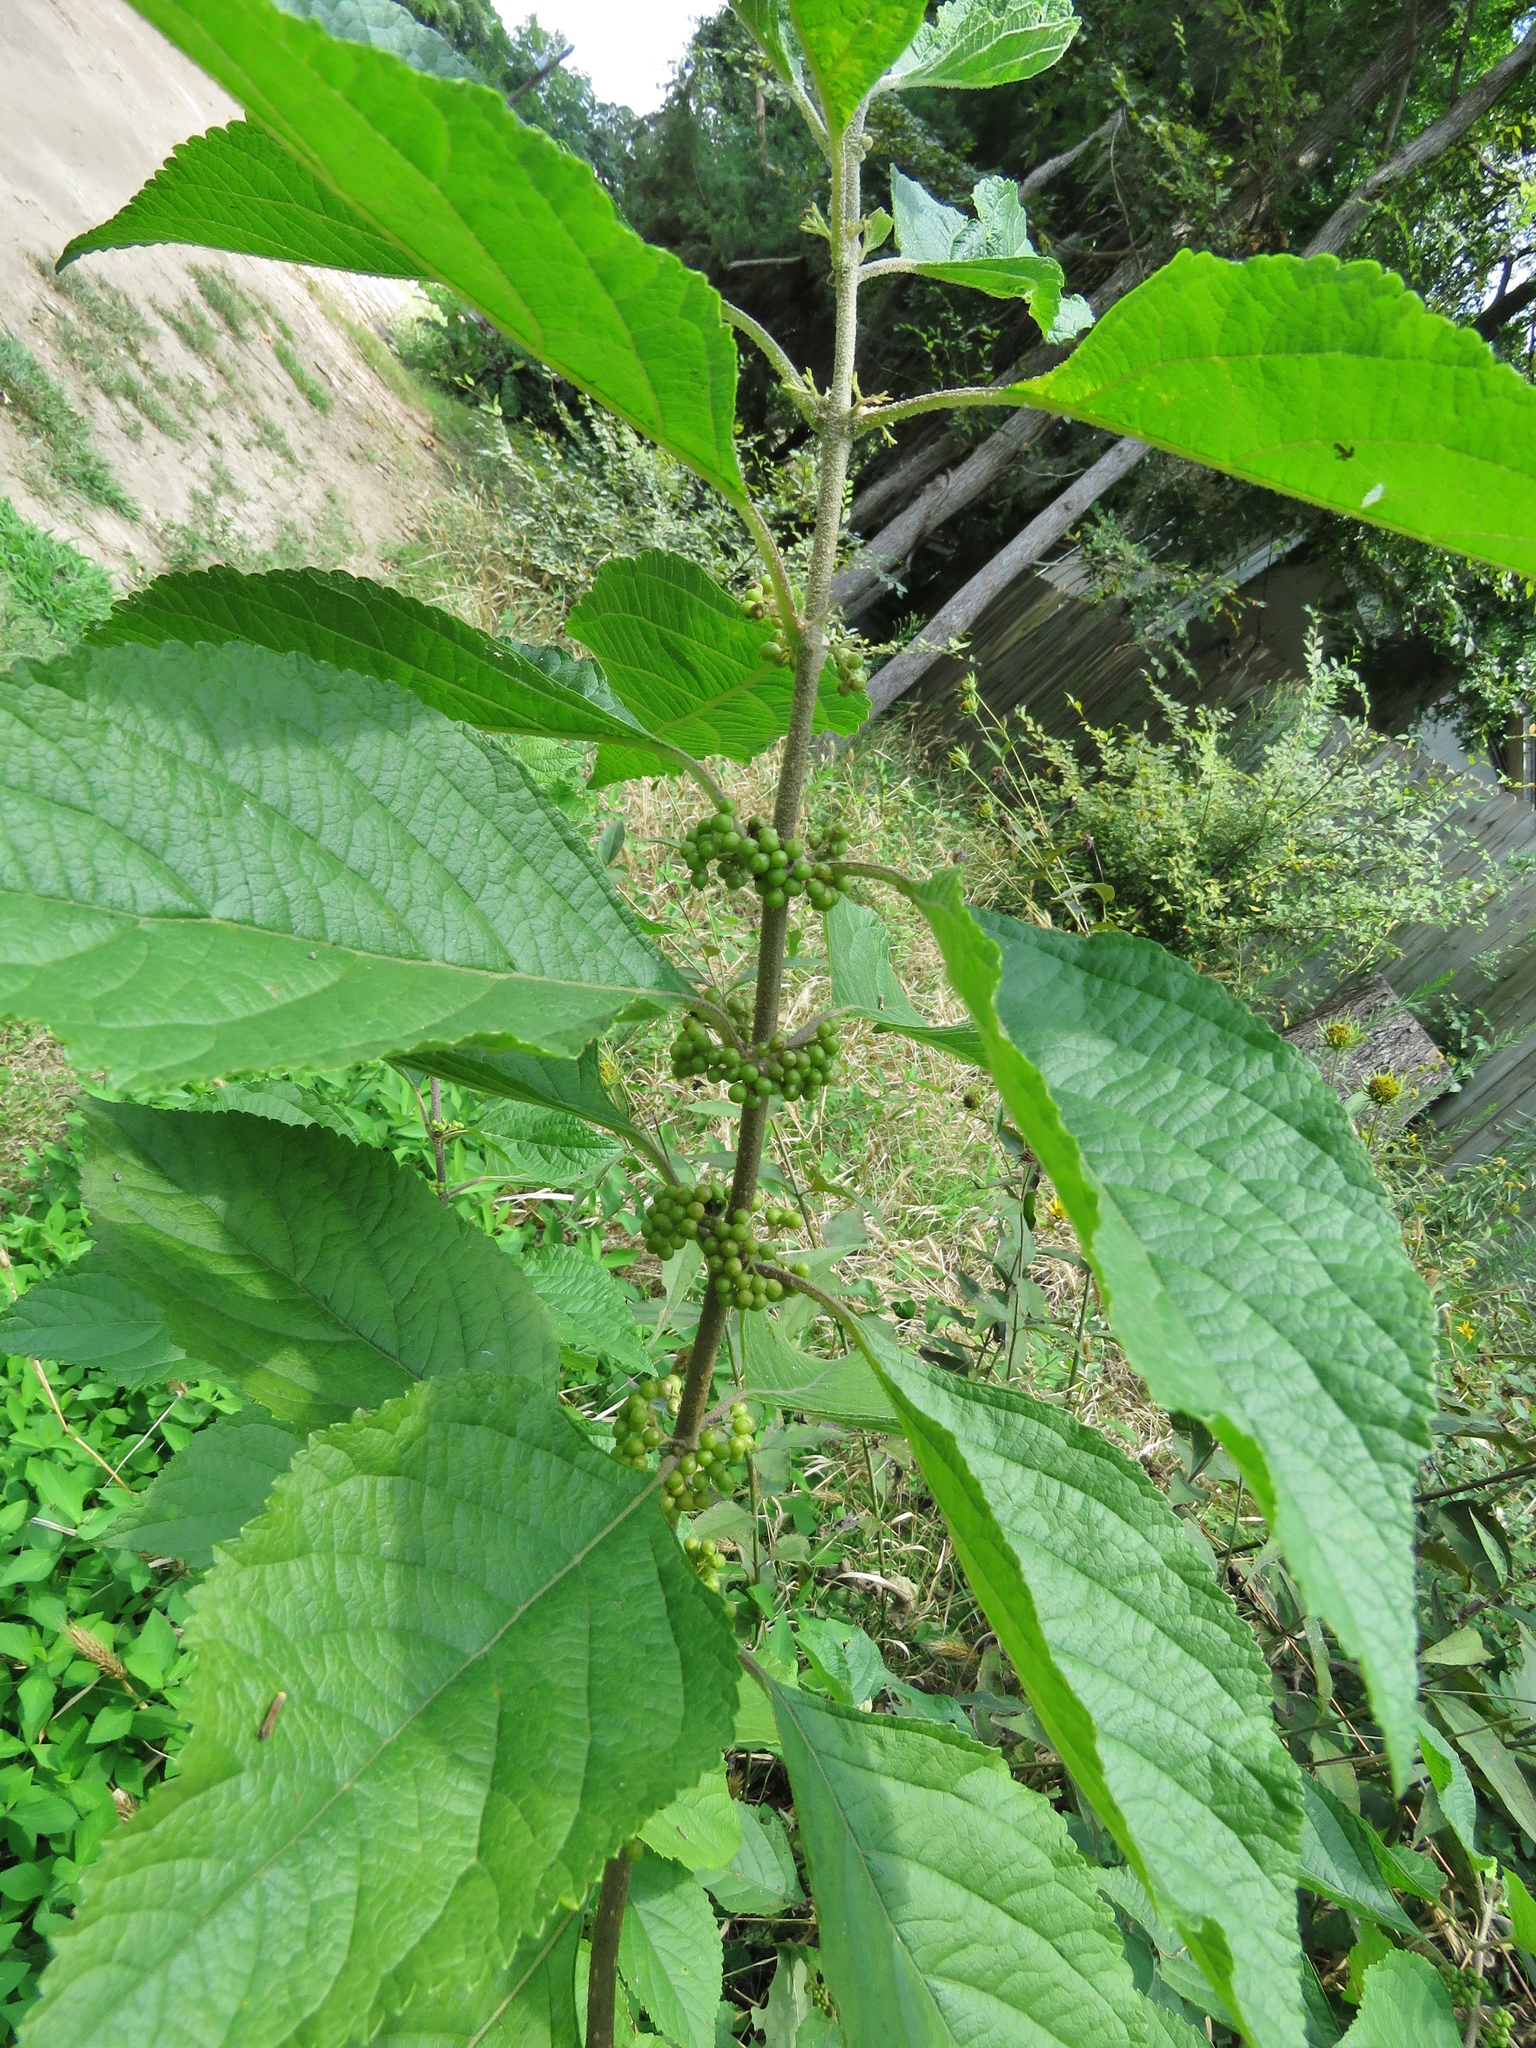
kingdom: Plantae
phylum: Tracheophyta
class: Magnoliopsida
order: Lamiales
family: Lamiaceae
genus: Callicarpa
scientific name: Callicarpa americana
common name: American beautyberry
